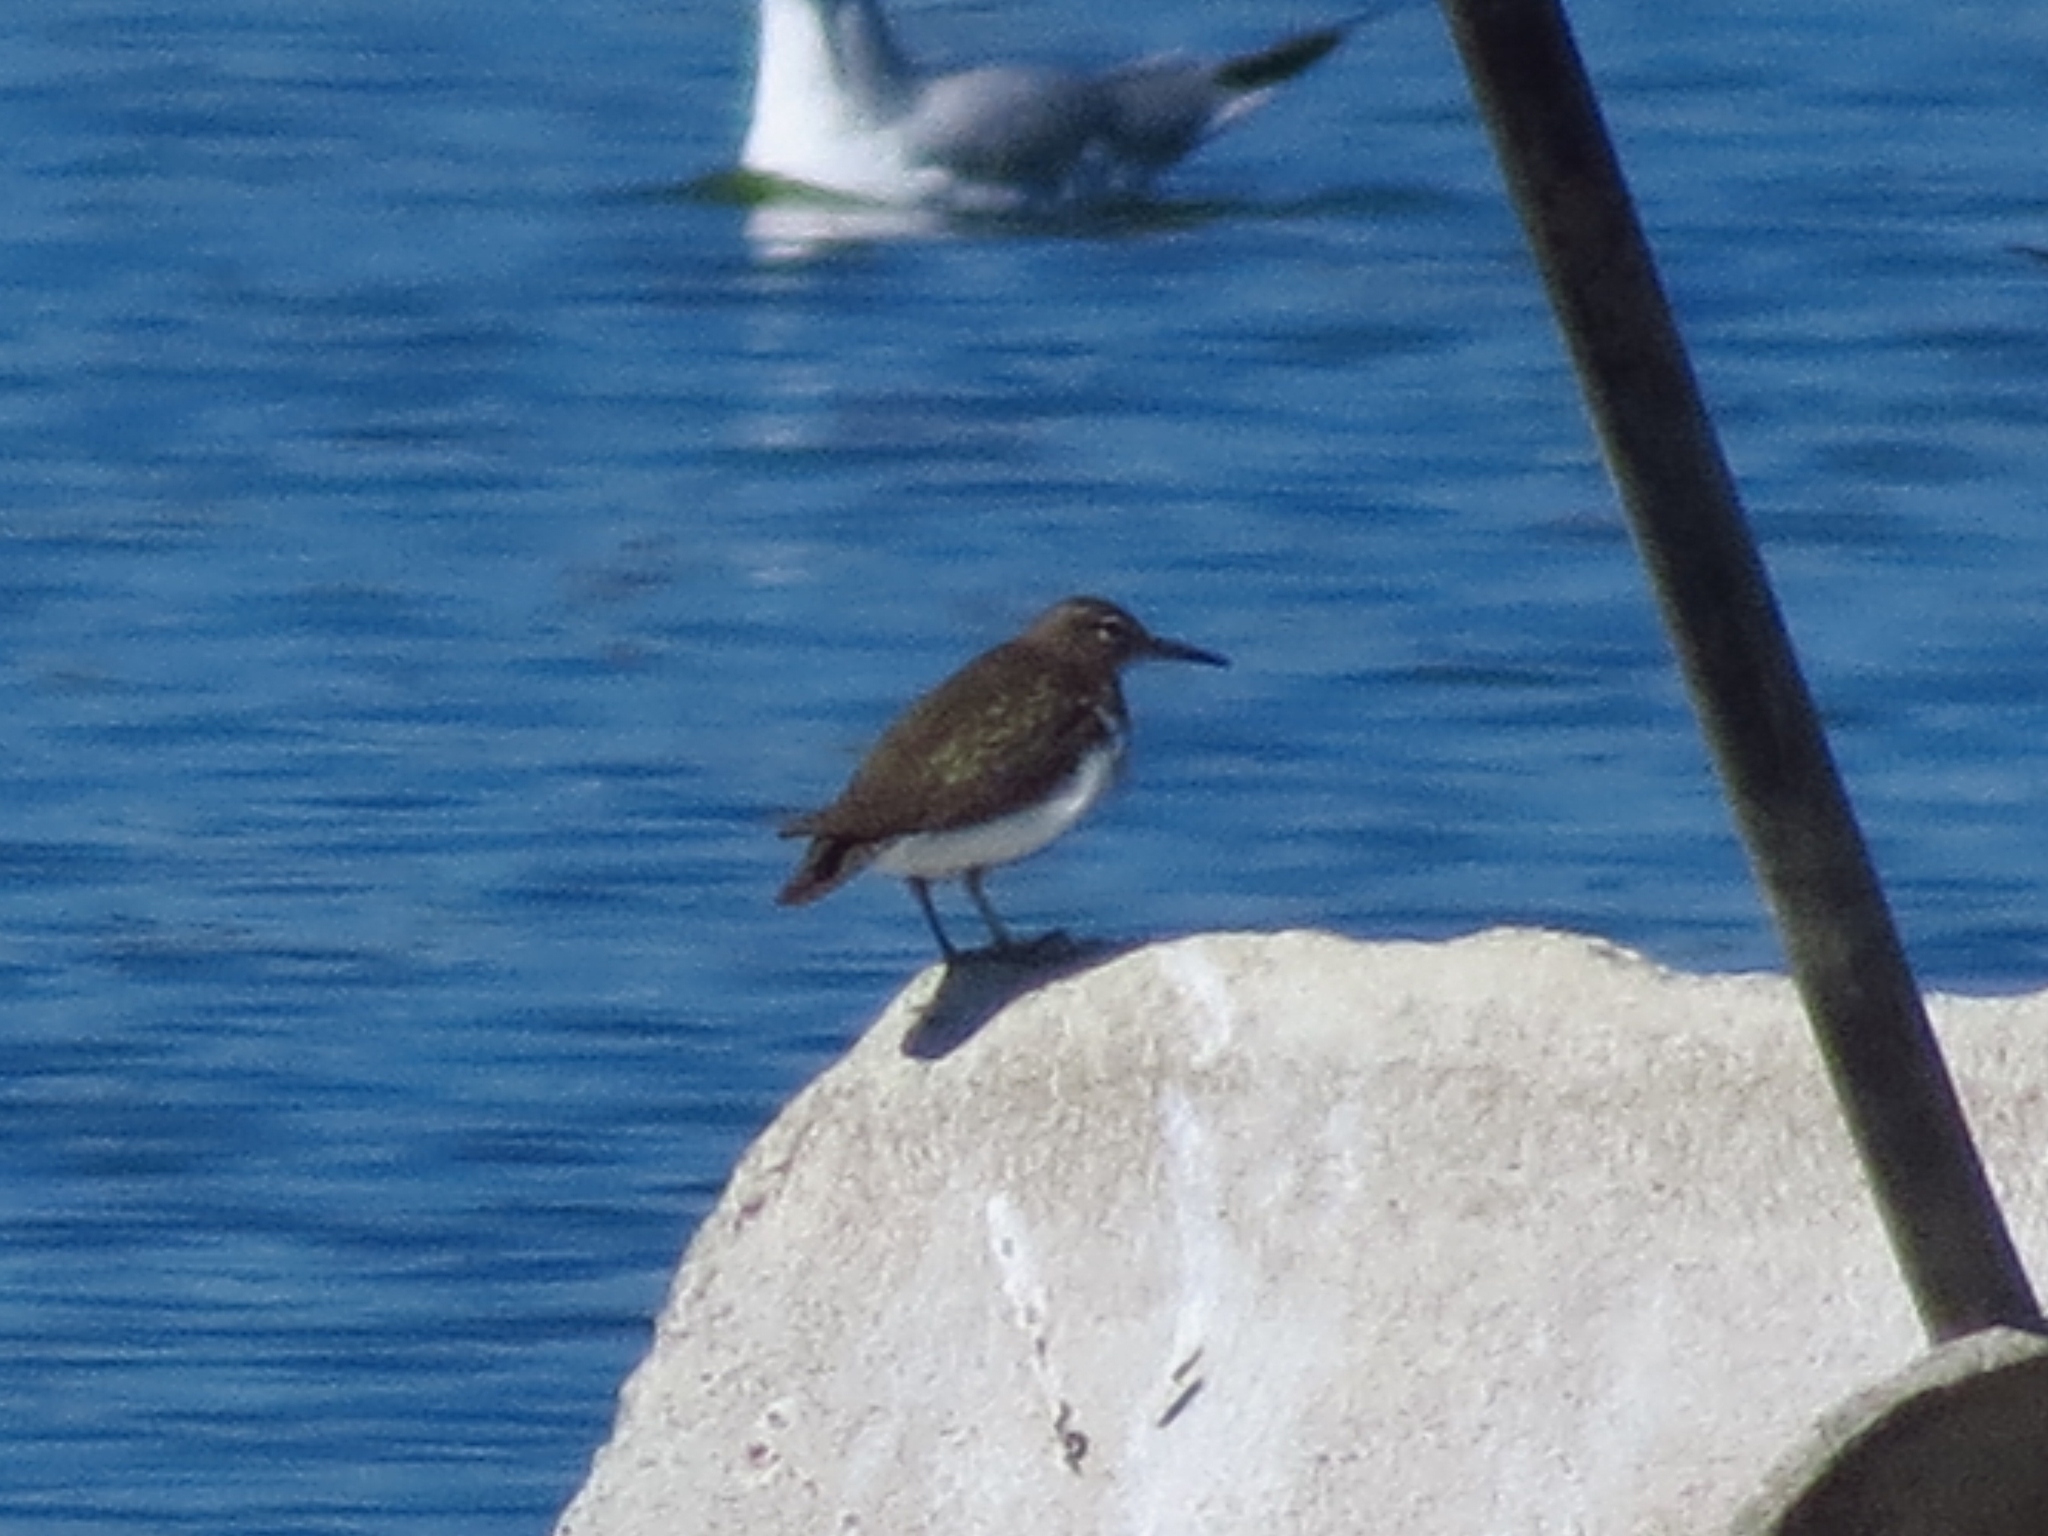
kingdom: Animalia
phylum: Chordata
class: Aves
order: Charadriiformes
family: Scolopacidae
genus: Actitis
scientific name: Actitis macularius
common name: Spotted sandpiper
